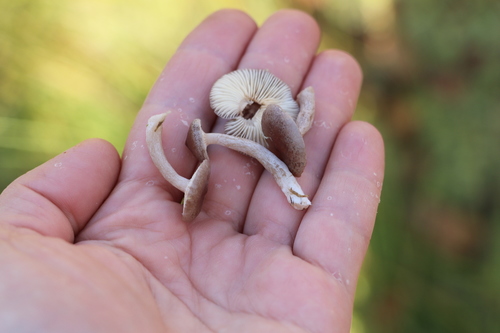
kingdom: Fungi
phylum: Basidiomycota
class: Agaricomycetes
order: Russulales
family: Russulaceae
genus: Lactarius
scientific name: Lactarius vietus
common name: Grey milk-cap
